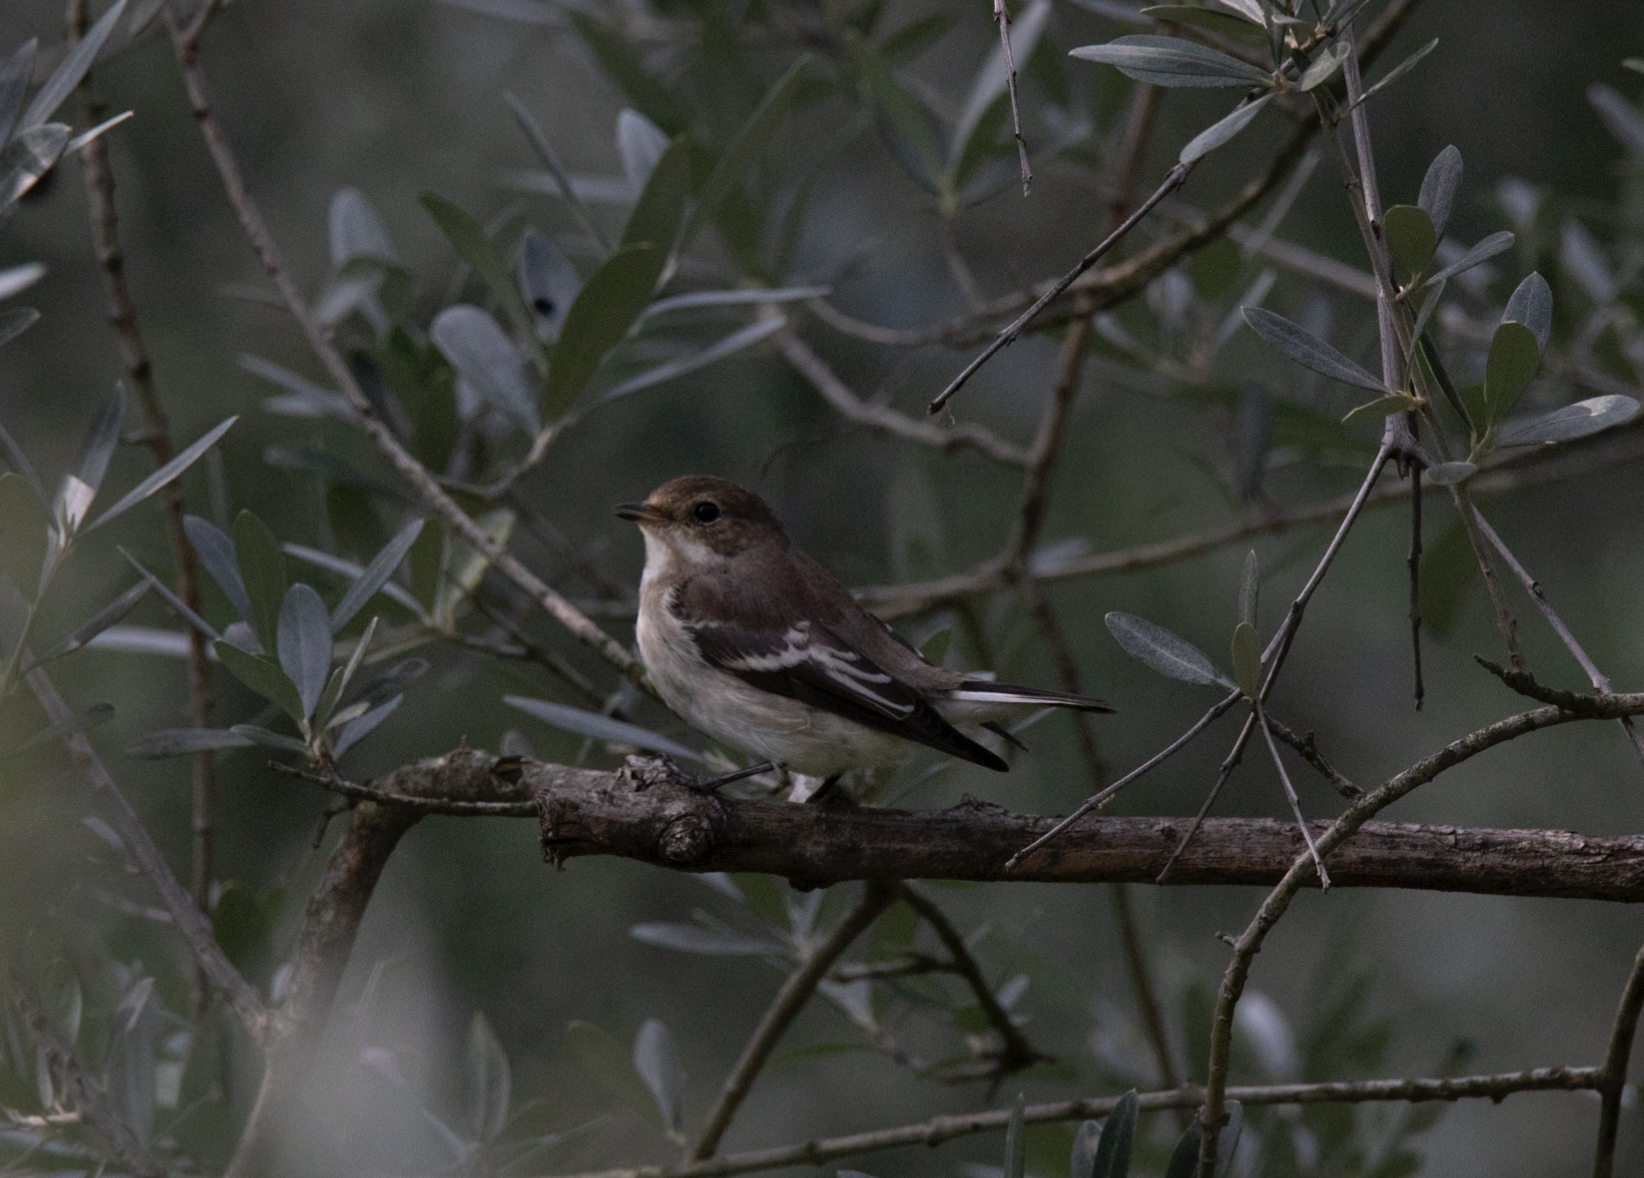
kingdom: Animalia
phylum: Chordata
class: Aves
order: Passeriformes
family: Muscicapidae
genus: Ficedula
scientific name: Ficedula hypoleuca
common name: European pied flycatcher
